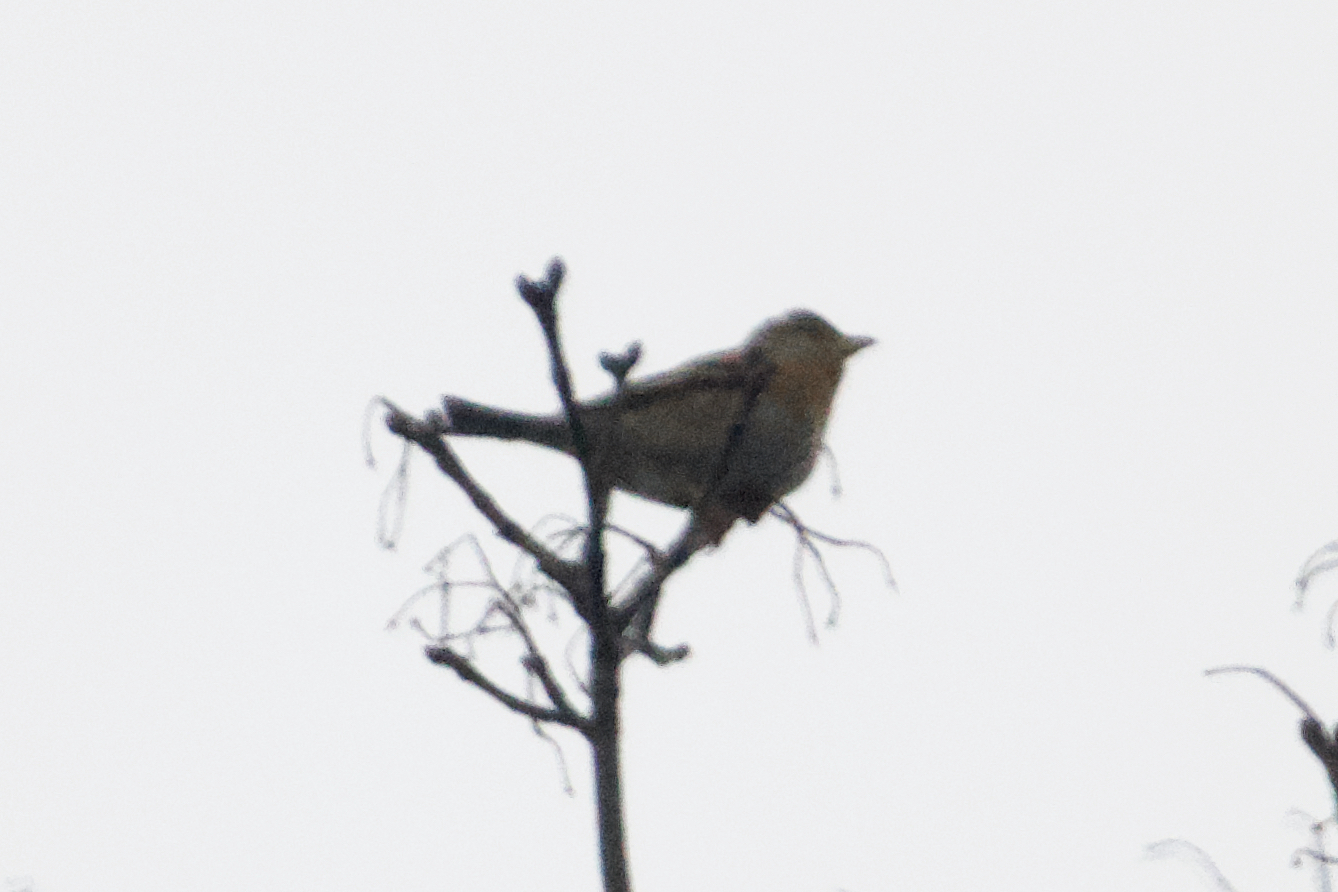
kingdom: Animalia
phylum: Chordata
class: Aves
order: Passeriformes
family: Fringillidae
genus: Fringilla
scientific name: Fringilla montifringilla
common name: Brambling
